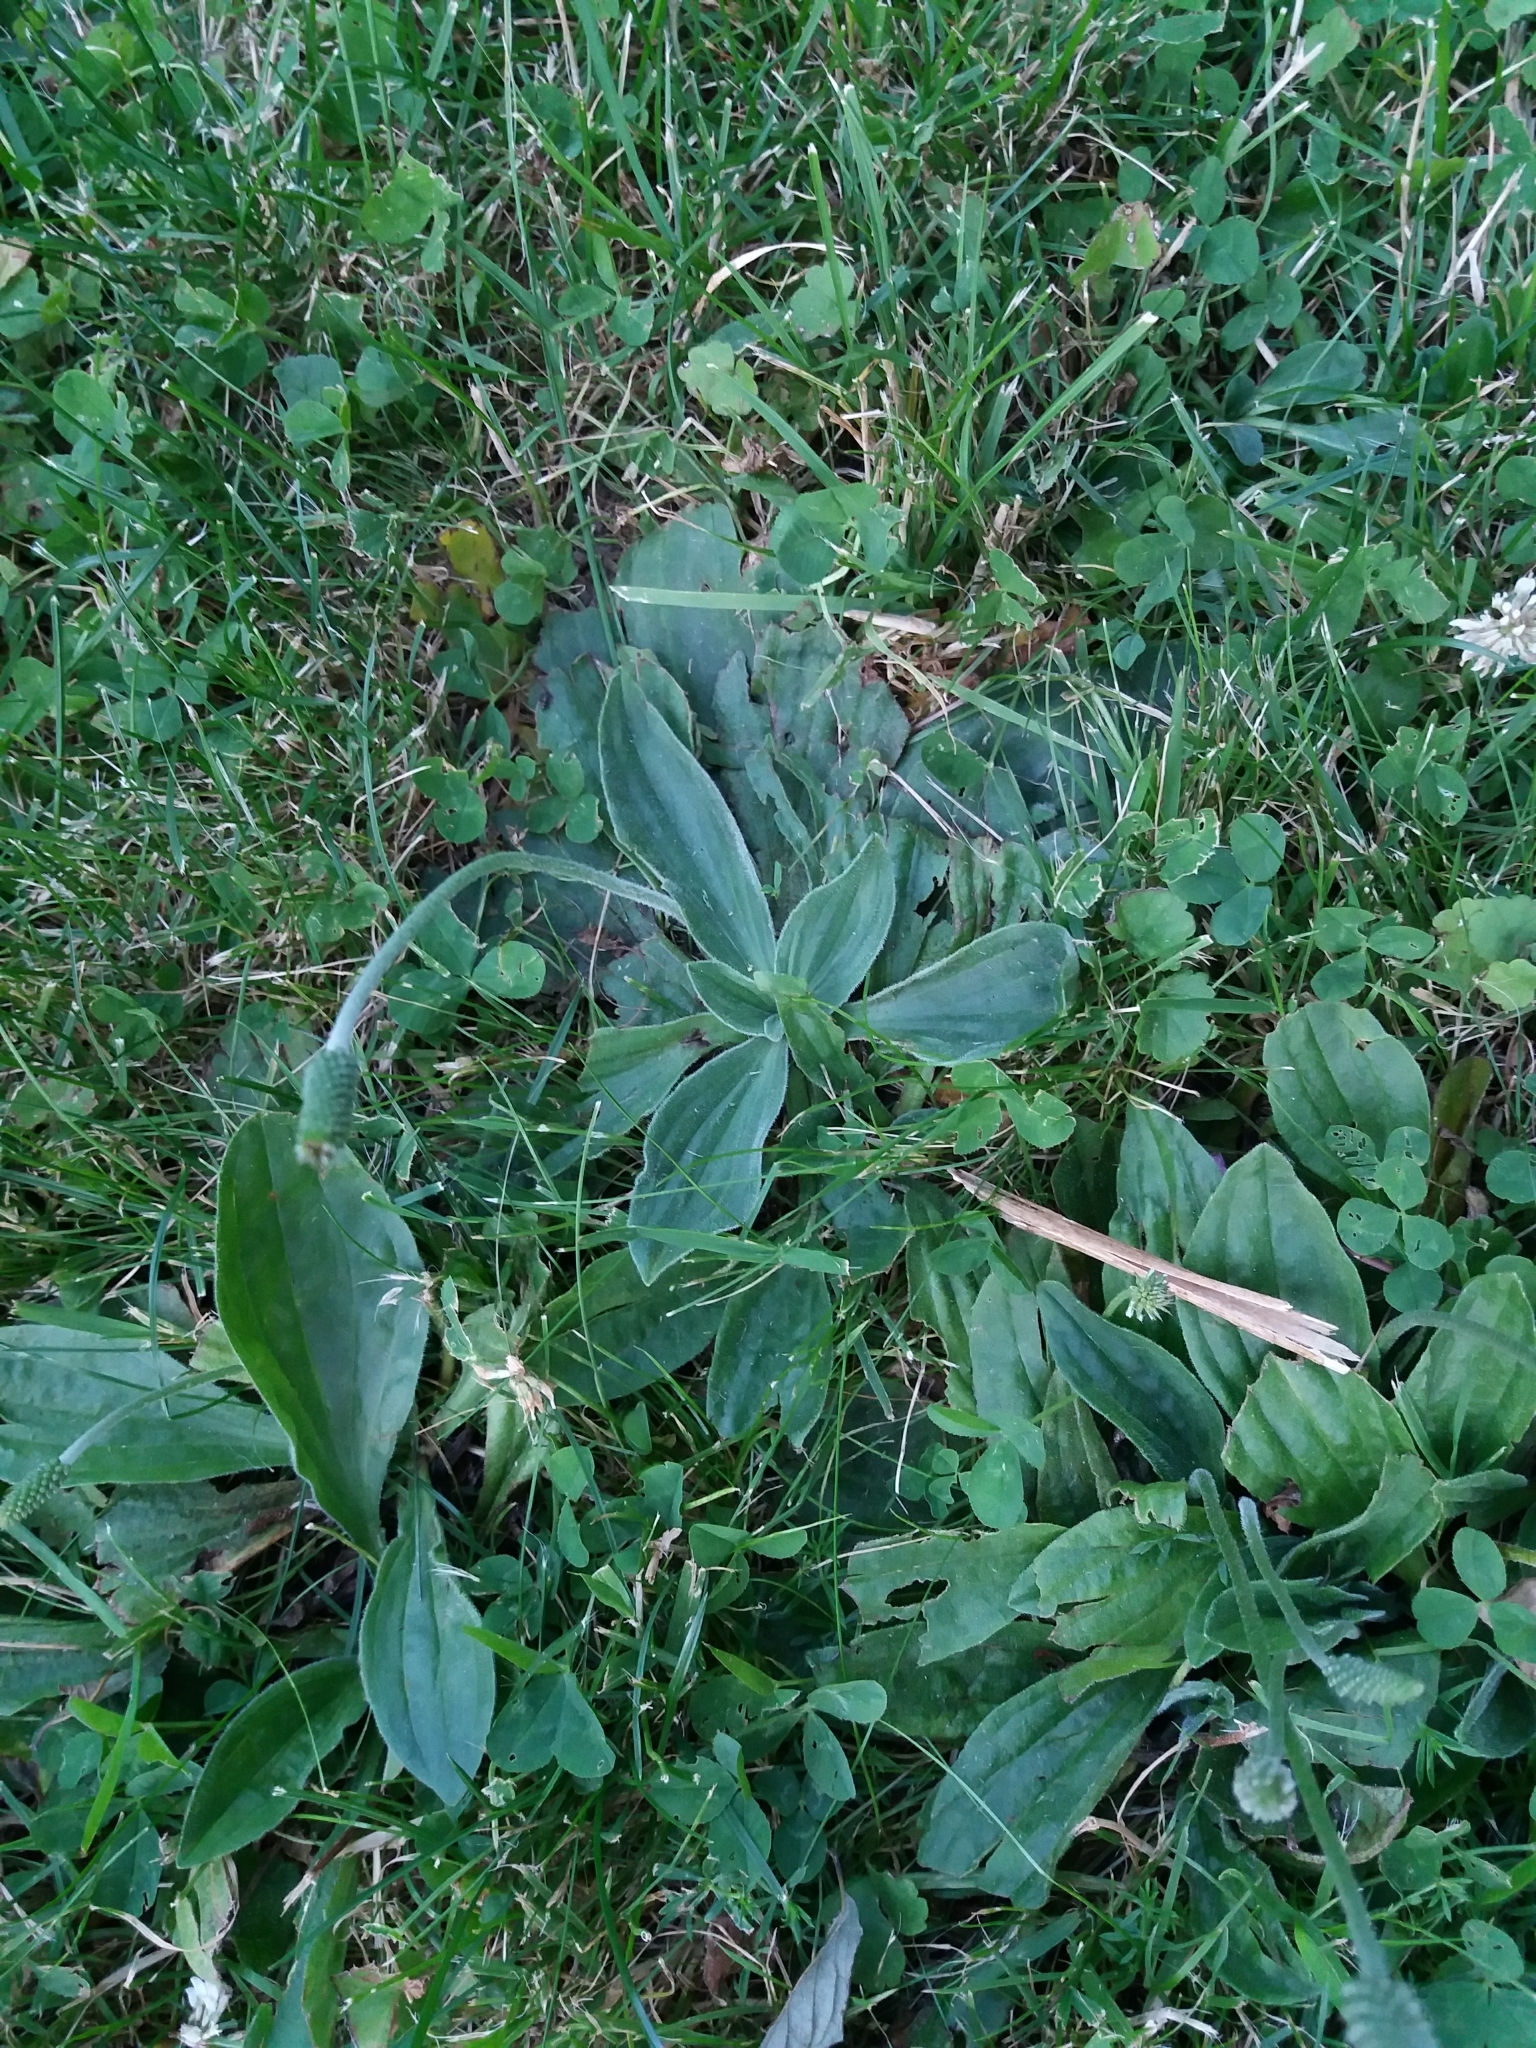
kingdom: Plantae
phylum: Tracheophyta
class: Magnoliopsida
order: Lamiales
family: Plantaginaceae
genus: Plantago
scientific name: Plantago media
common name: Hoary plantain
